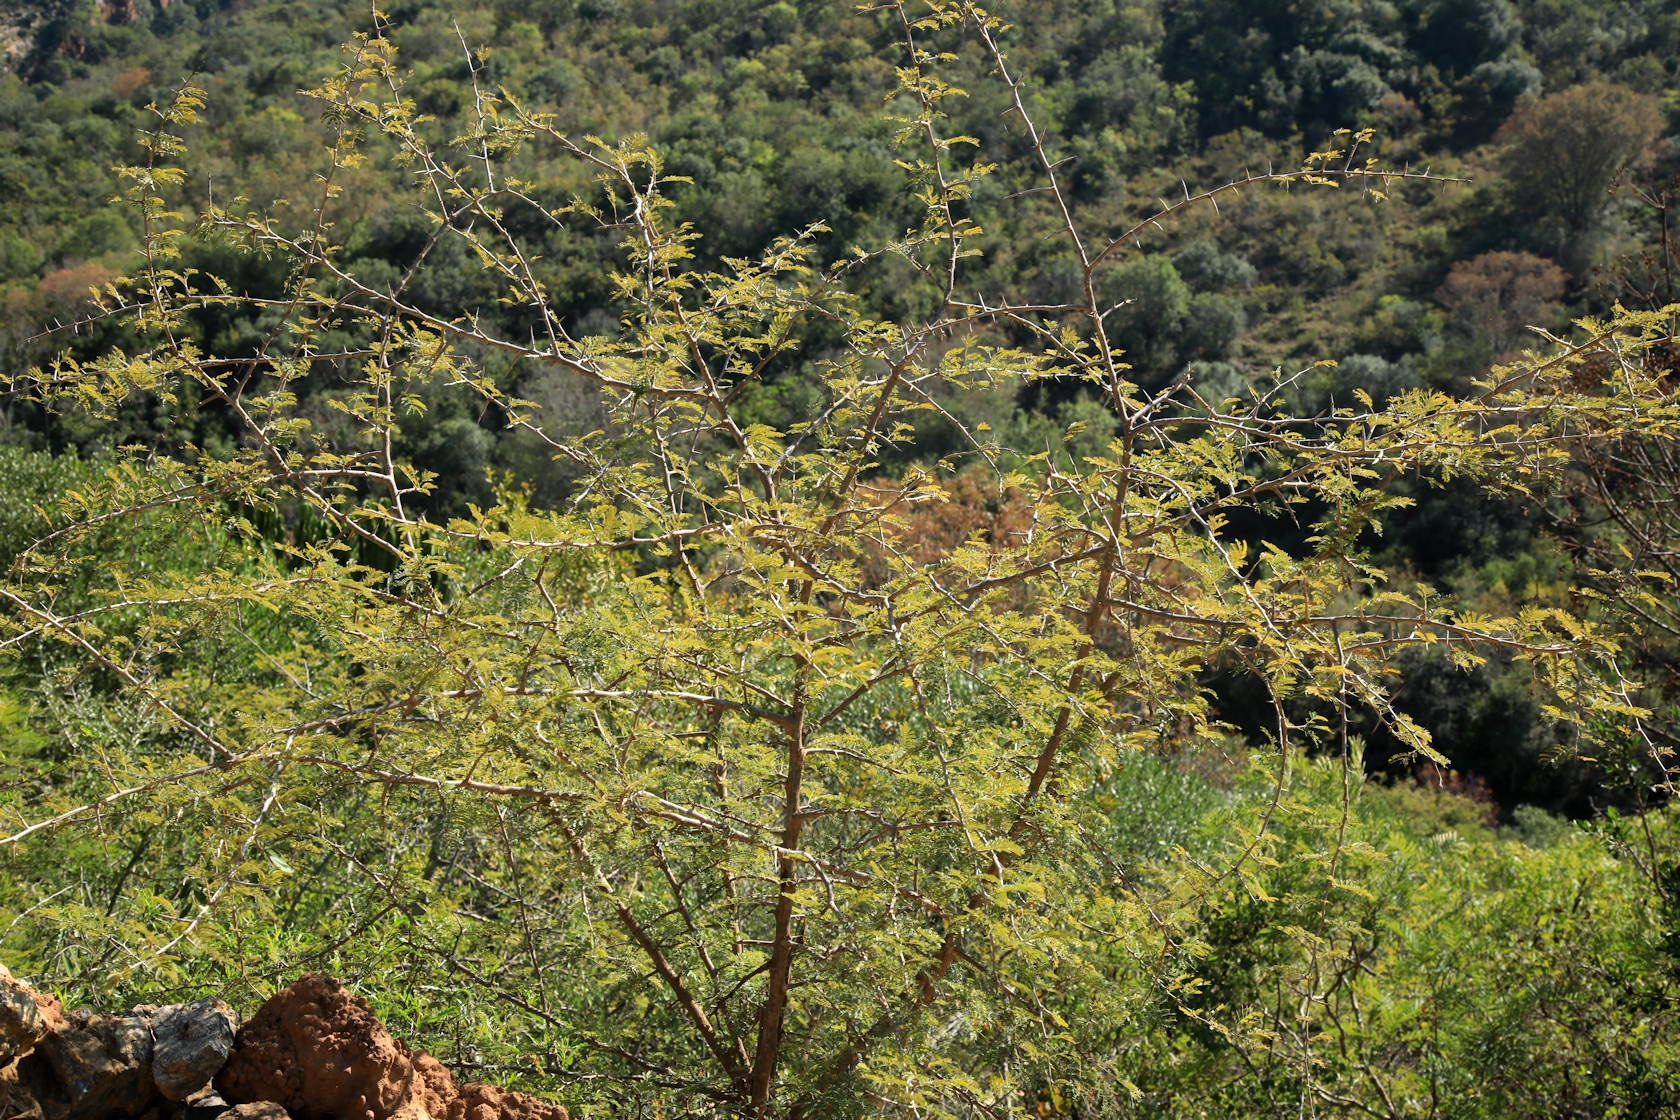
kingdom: Plantae
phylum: Tracheophyta
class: Magnoliopsida
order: Fabales
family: Fabaceae
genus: Dichrostachys
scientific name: Dichrostachys cinerea
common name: Sicklebush
